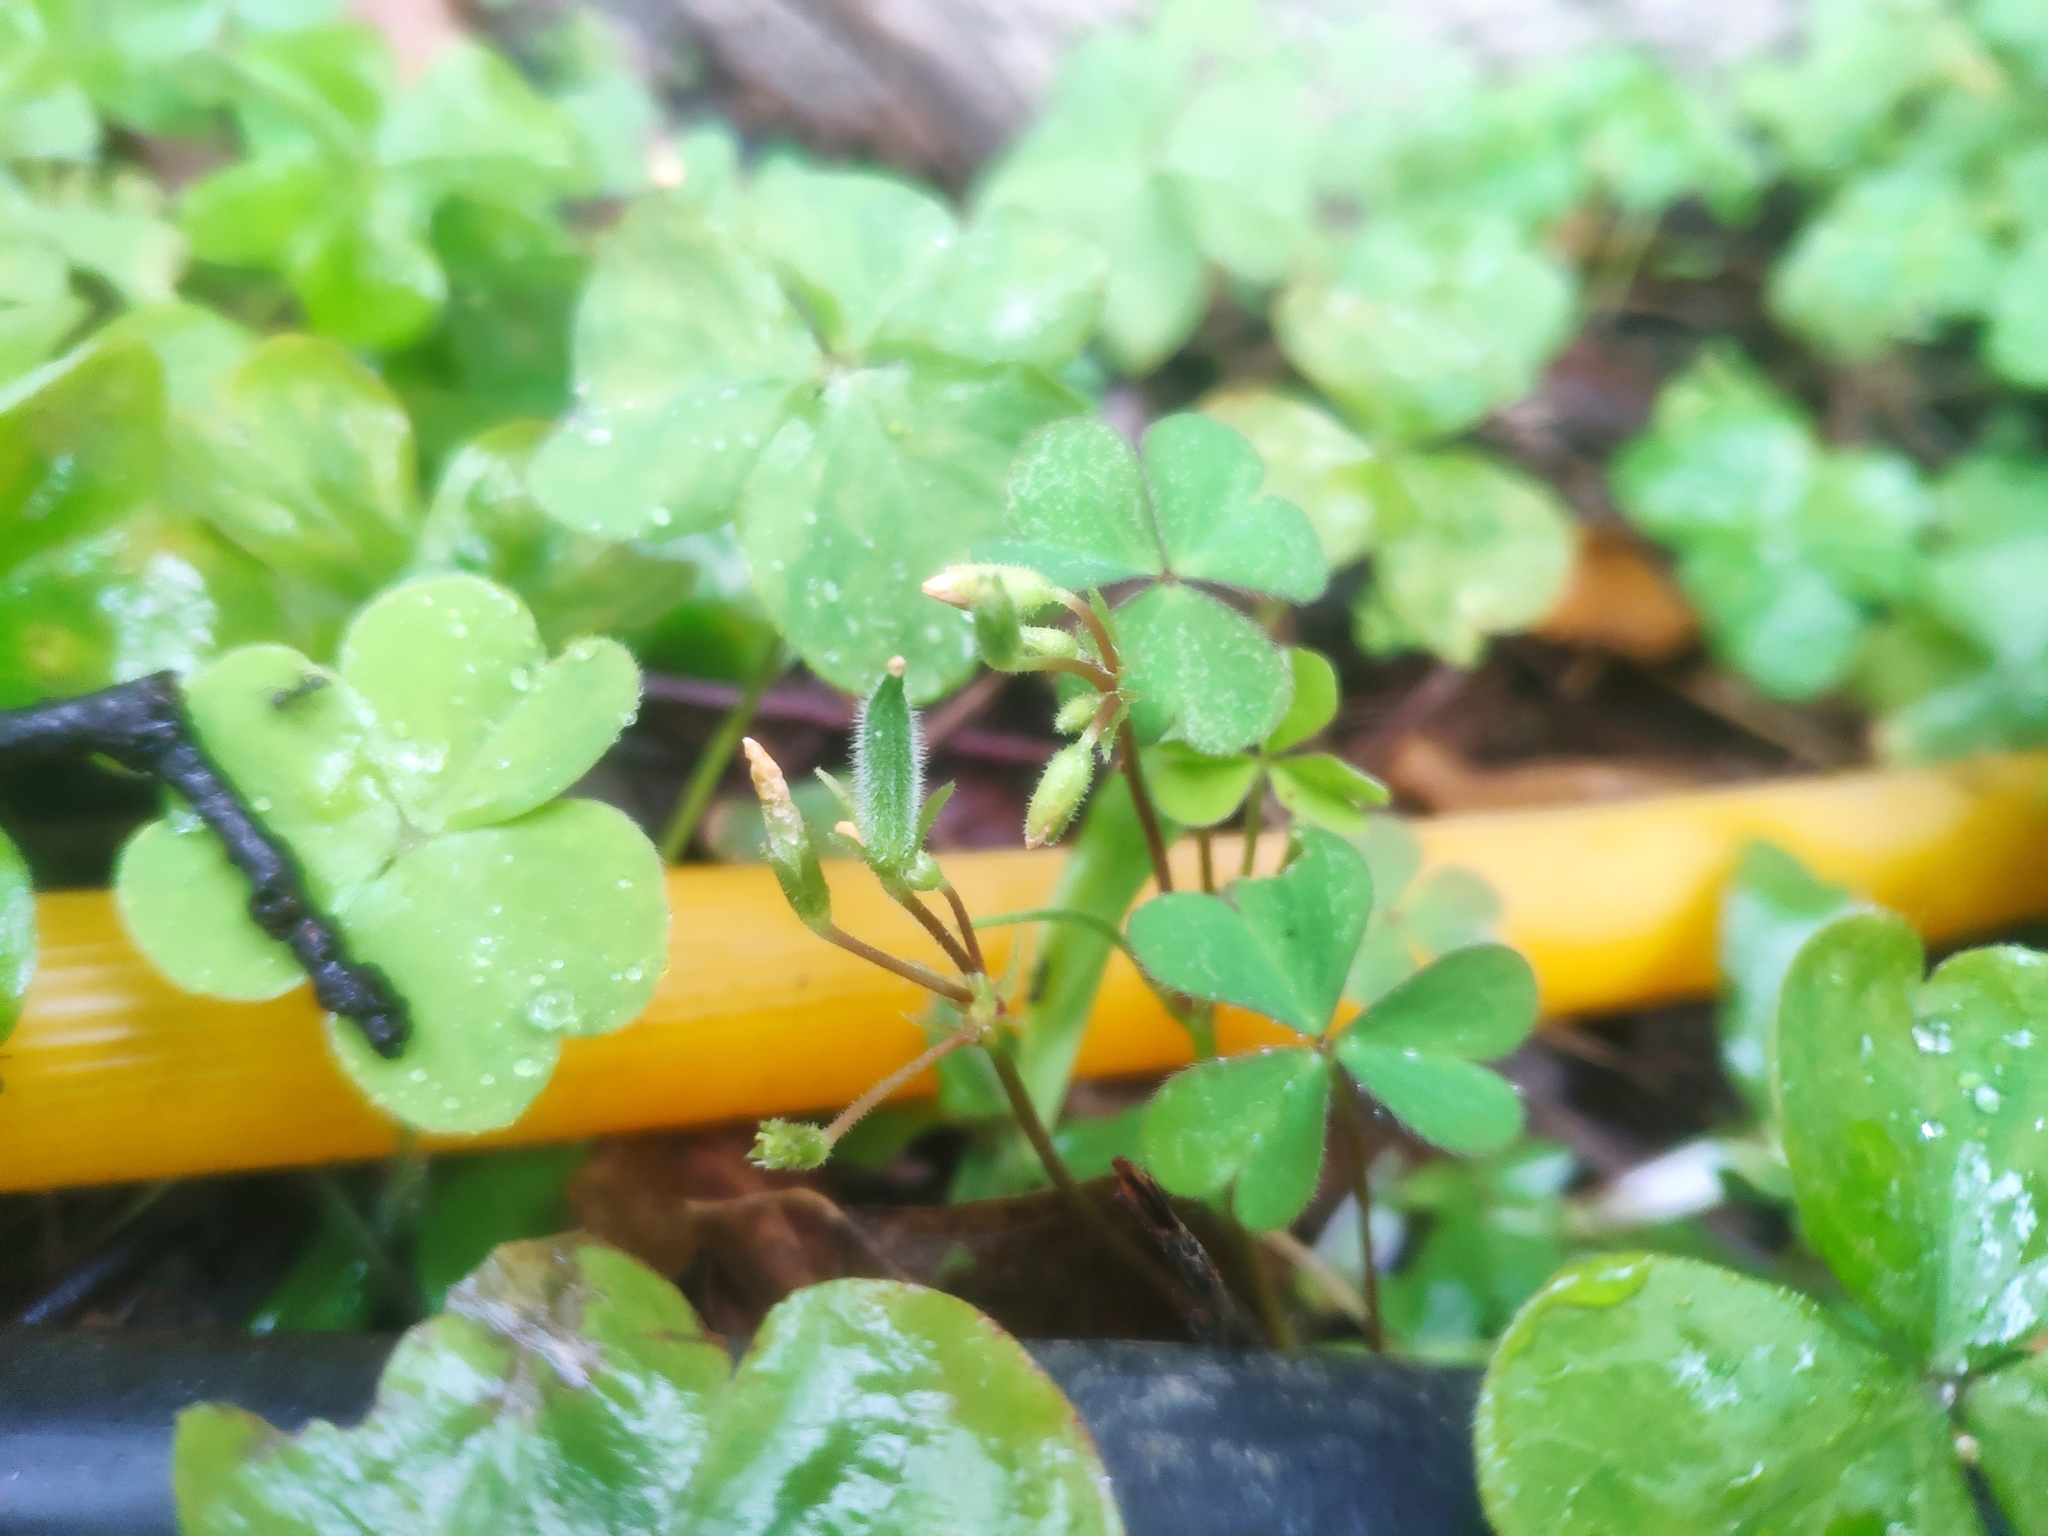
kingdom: Plantae
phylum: Tracheophyta
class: Magnoliopsida
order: Oxalidales
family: Oxalidaceae
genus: Oxalis
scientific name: Oxalis corniculata
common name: Procumbent yellow-sorrel
